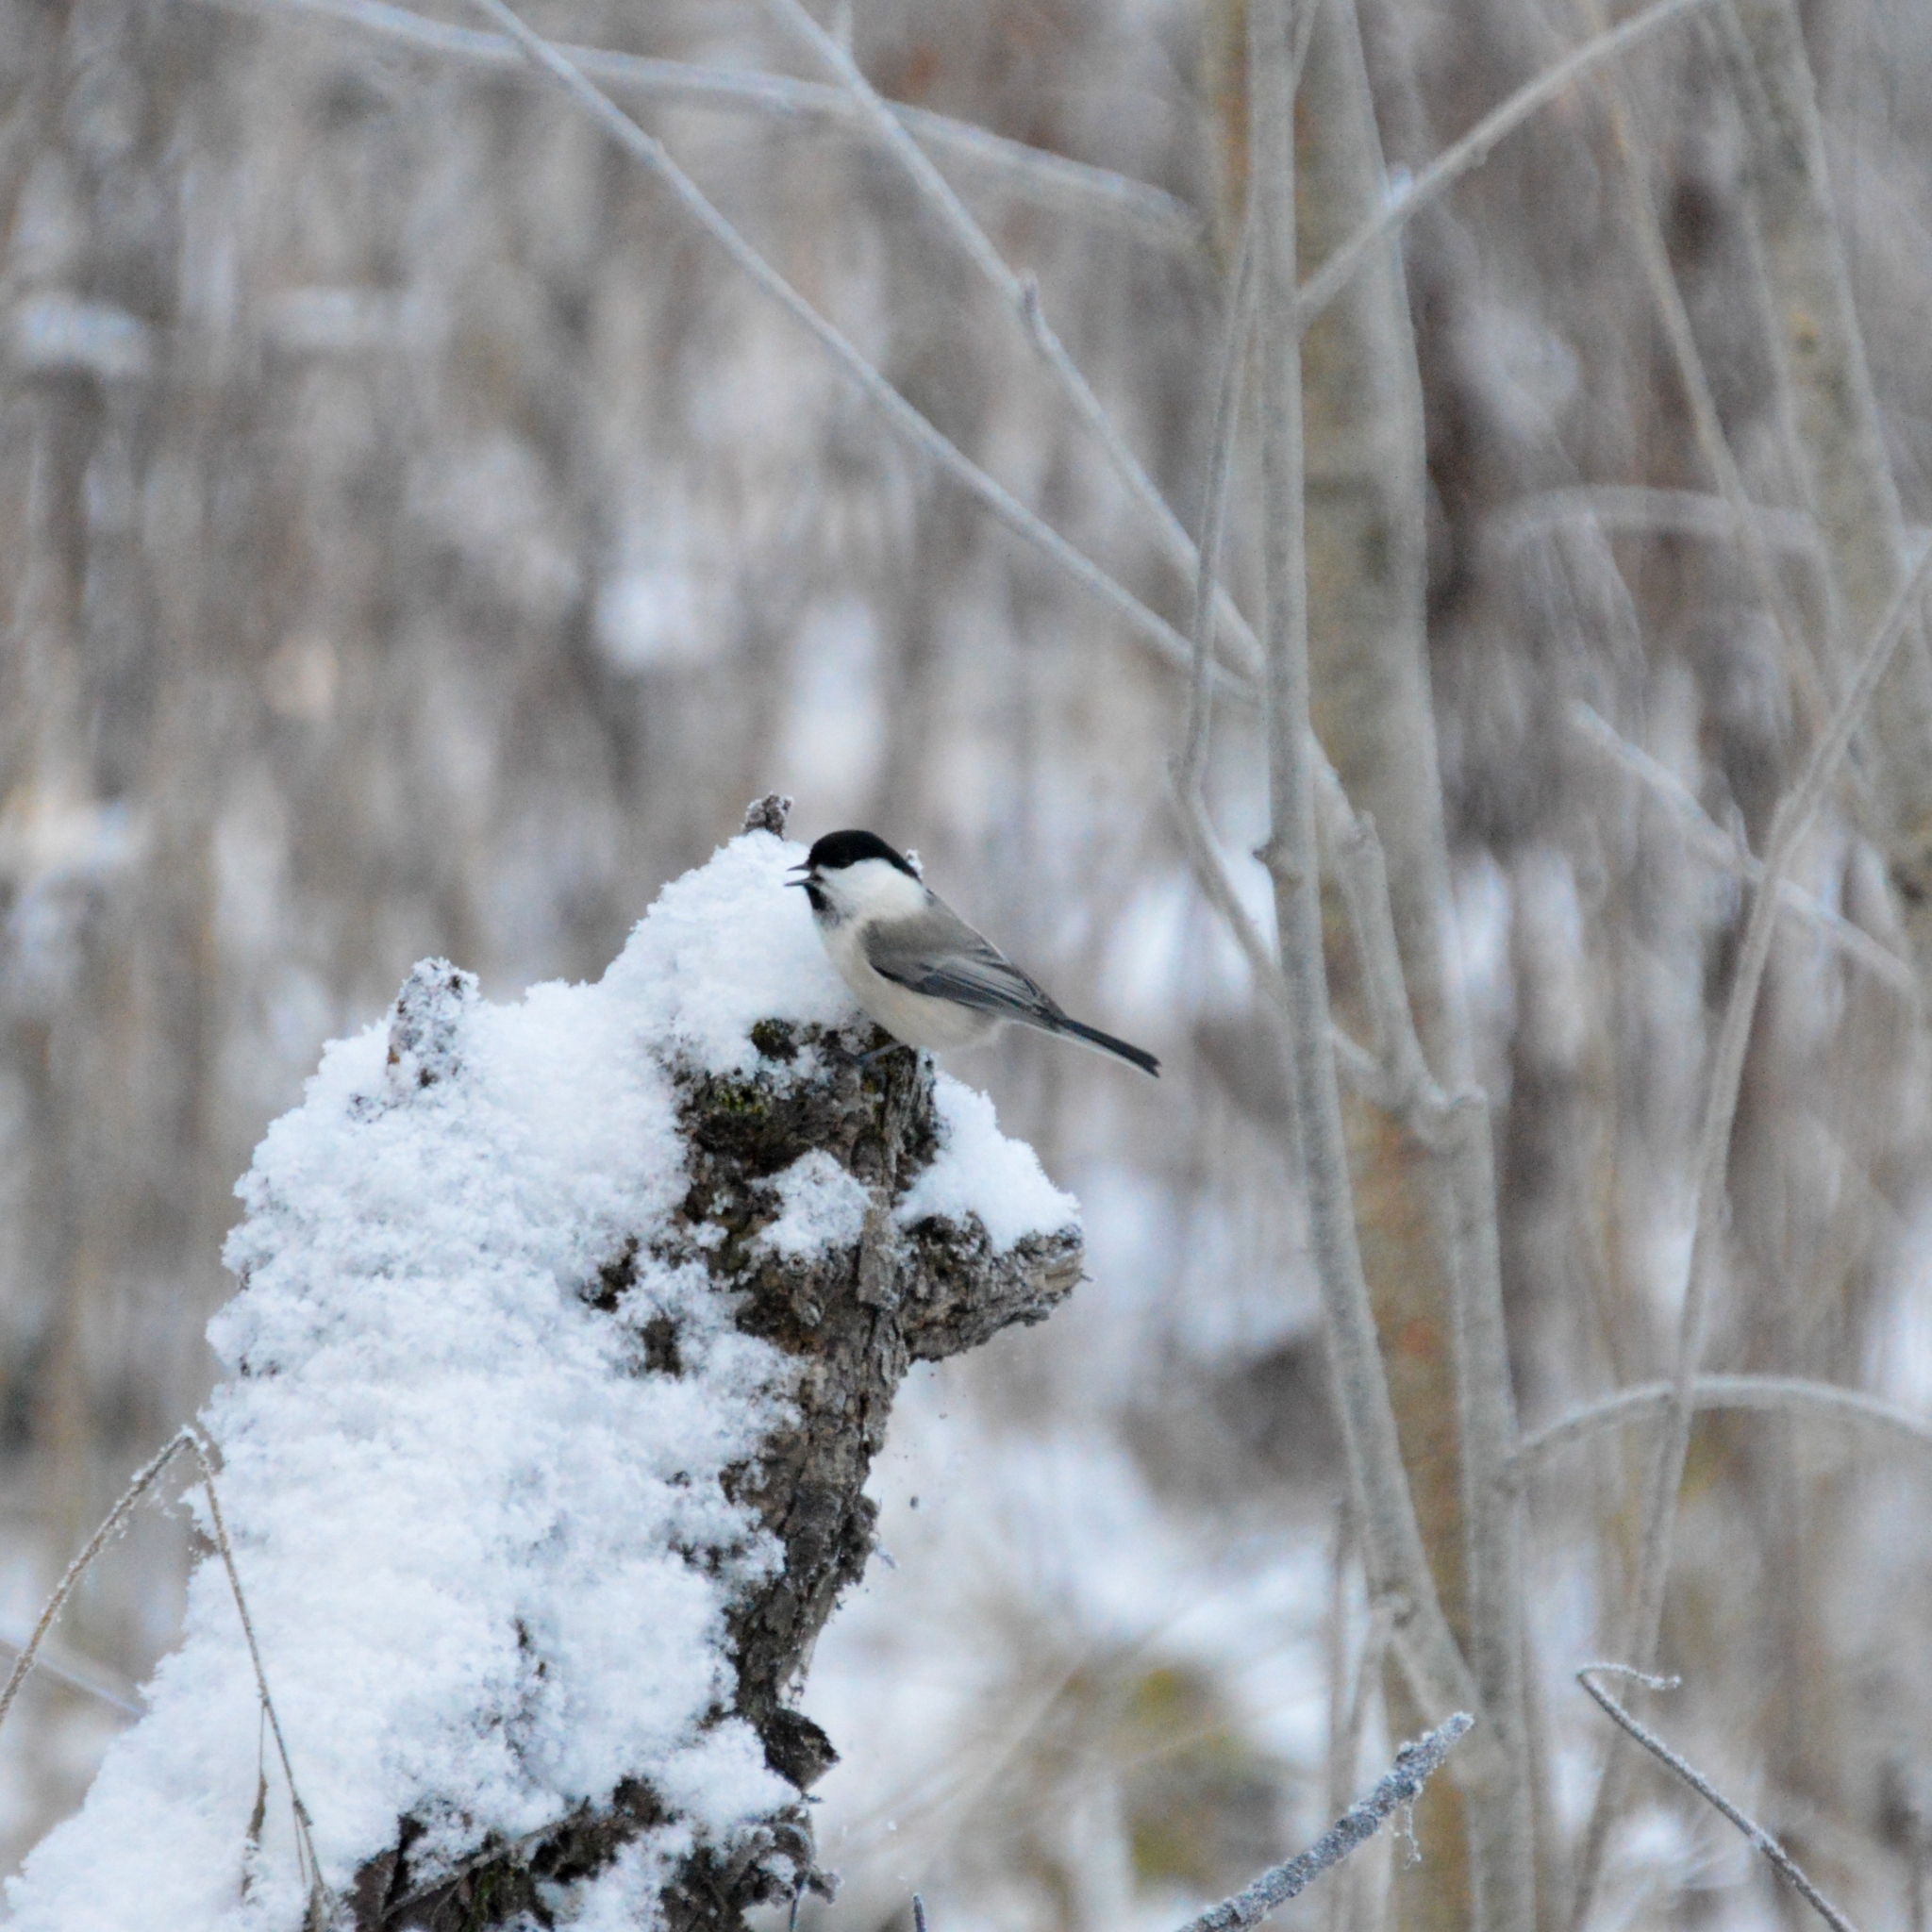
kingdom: Animalia
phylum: Chordata
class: Aves
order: Passeriformes
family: Paridae
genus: Poecile
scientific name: Poecile montanus
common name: Willow tit
